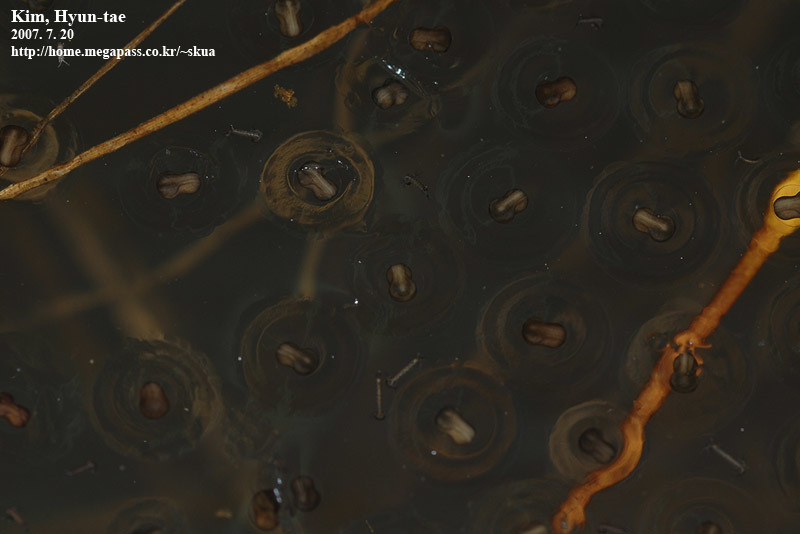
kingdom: Animalia
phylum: Chordata
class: Amphibia
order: Anura
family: Microhylidae
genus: Kaloula
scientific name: Kaloula borealis
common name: Boreal digging frog
